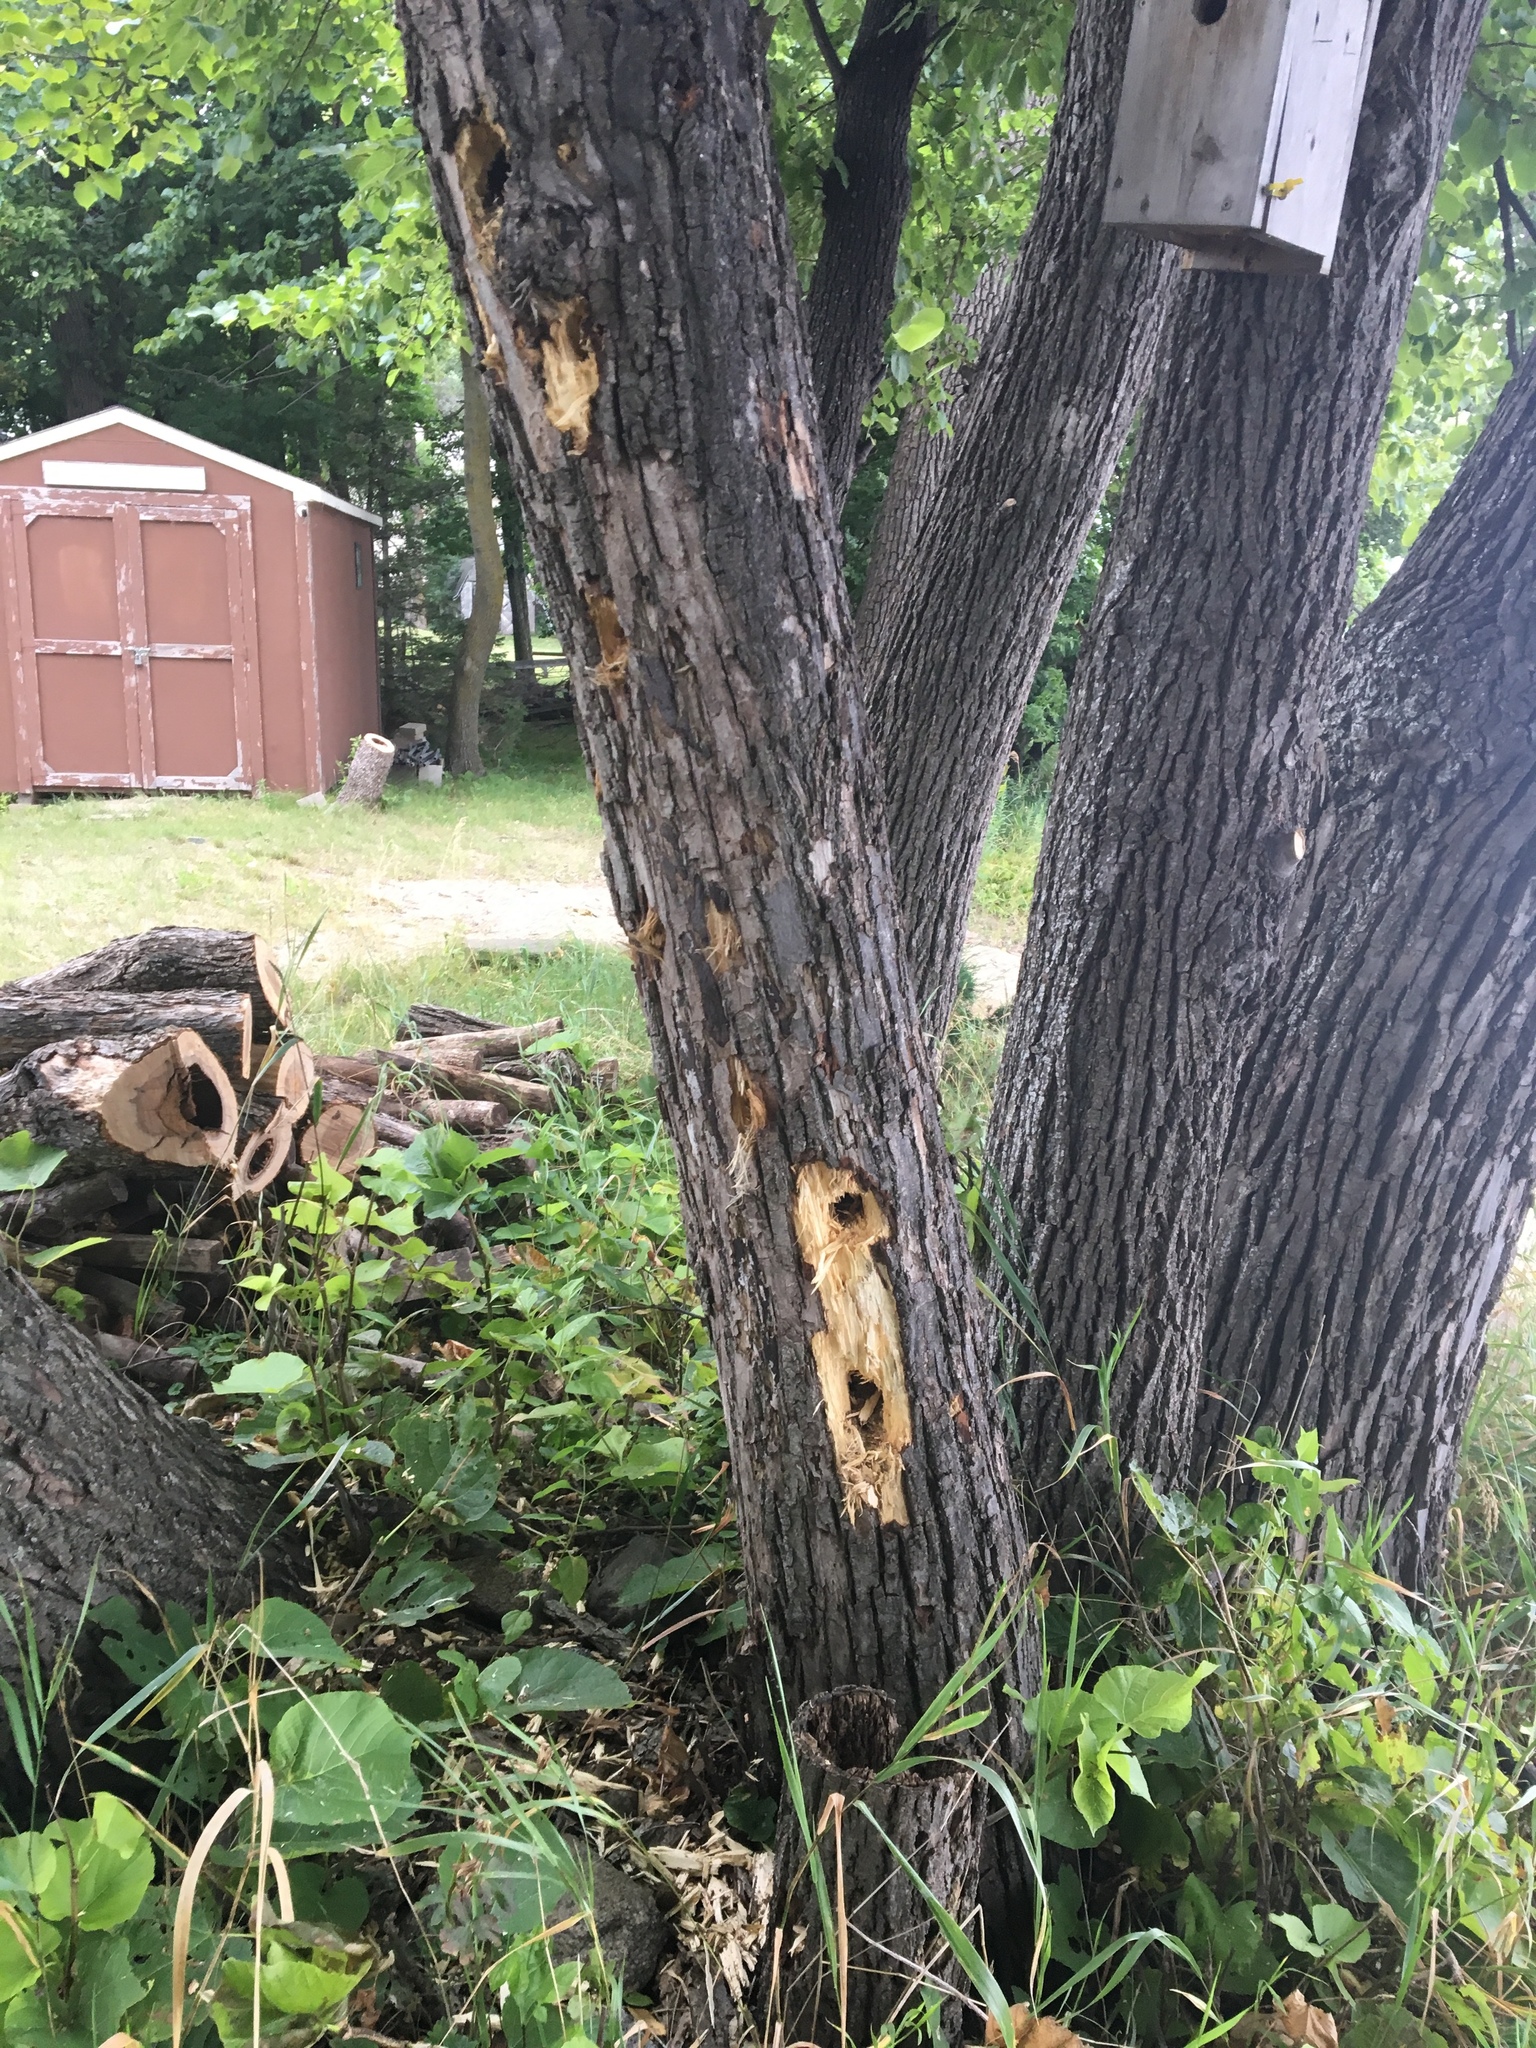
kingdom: Animalia
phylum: Chordata
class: Aves
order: Piciformes
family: Picidae
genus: Dryocopus
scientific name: Dryocopus pileatus
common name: Pileated woodpecker
